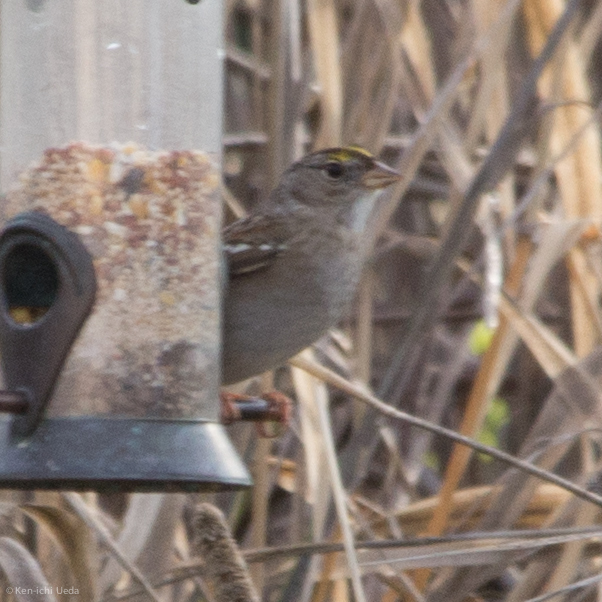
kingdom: Animalia
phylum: Chordata
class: Aves
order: Passeriformes
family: Passerellidae
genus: Zonotrichia
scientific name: Zonotrichia atricapilla
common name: Golden-crowned sparrow
